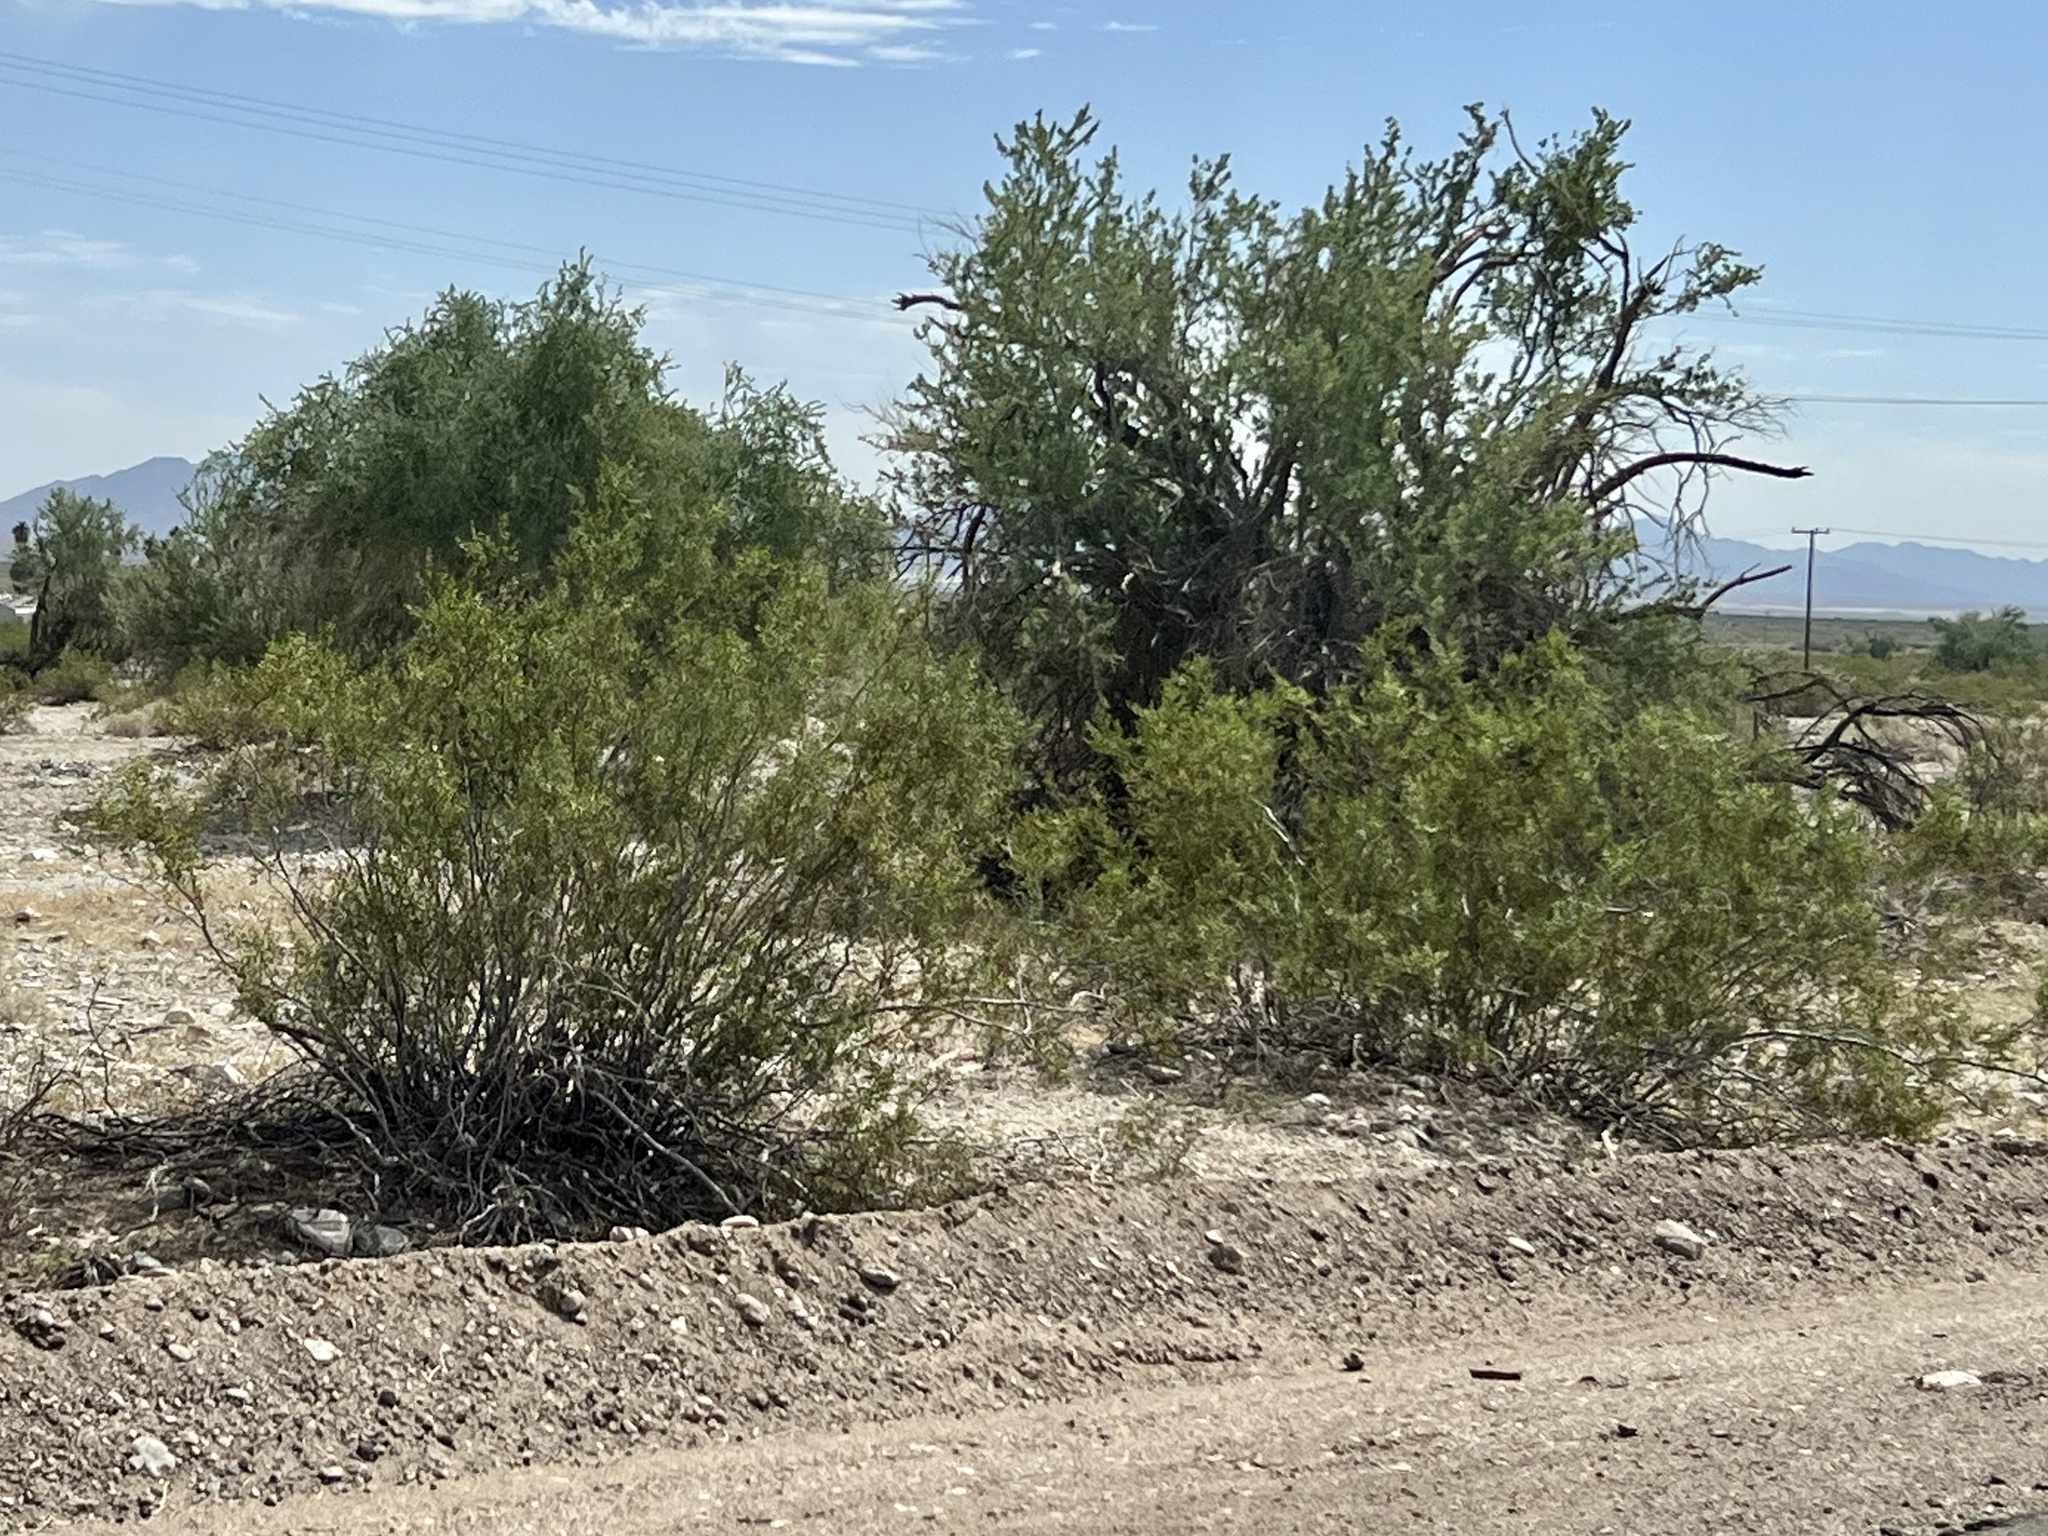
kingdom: Plantae
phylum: Tracheophyta
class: Magnoliopsida
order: Zygophyllales
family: Zygophyllaceae
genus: Larrea
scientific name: Larrea tridentata
